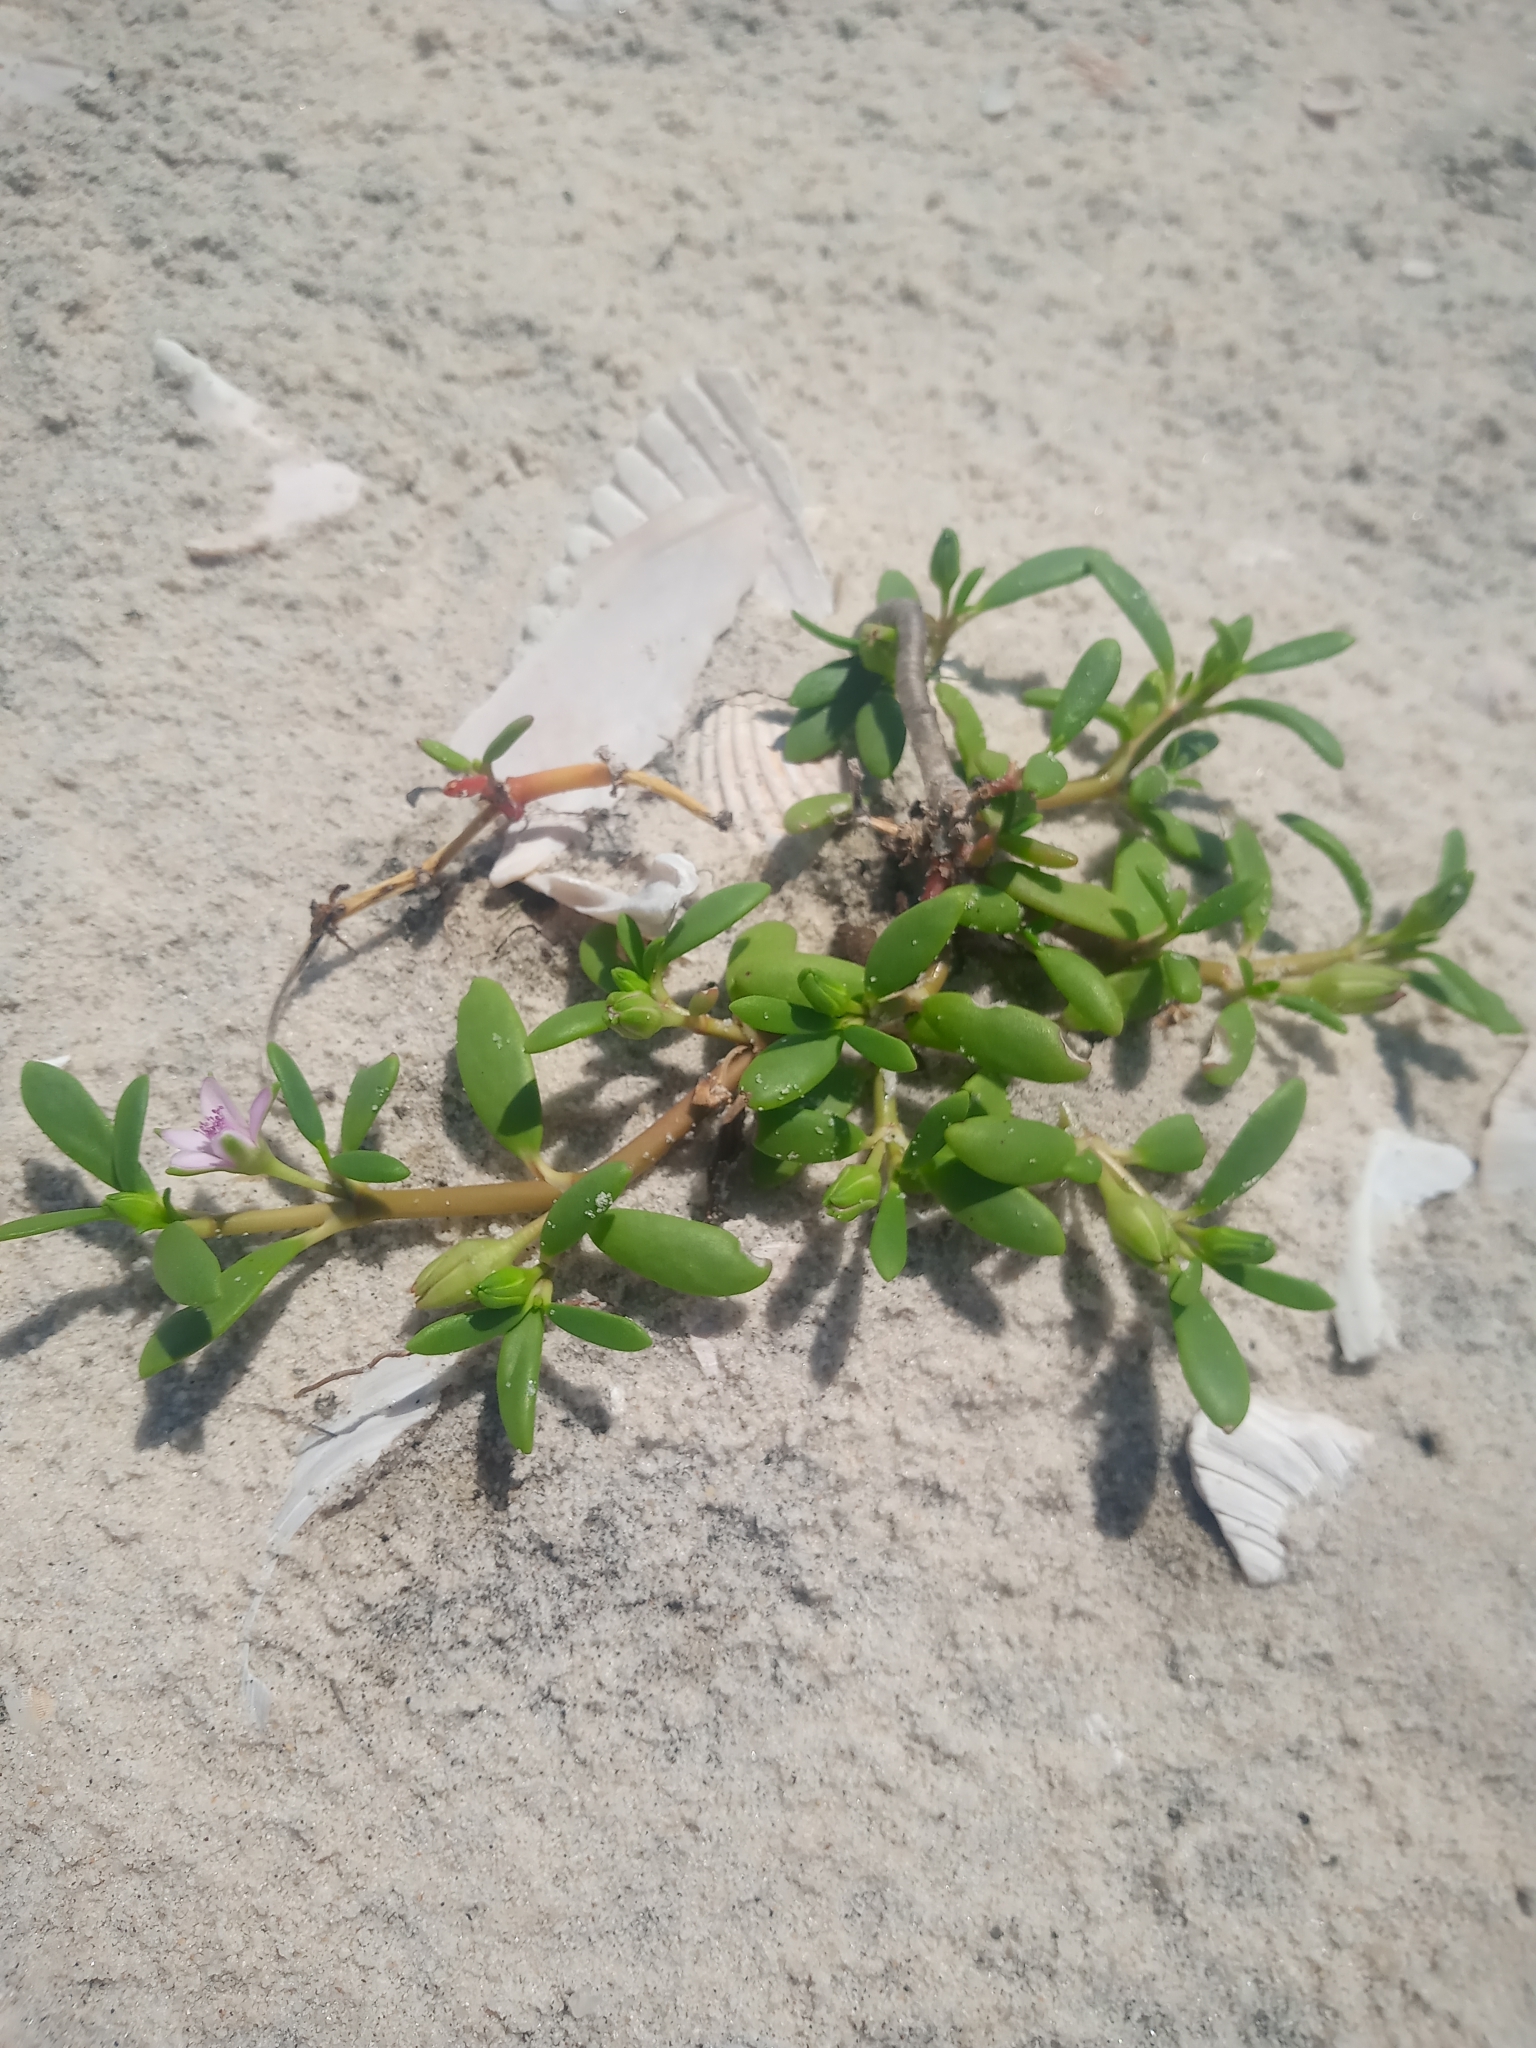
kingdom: Plantae
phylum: Tracheophyta
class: Magnoliopsida
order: Caryophyllales
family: Aizoaceae
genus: Sesuvium
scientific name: Sesuvium portulacastrum
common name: Sea-purslane
